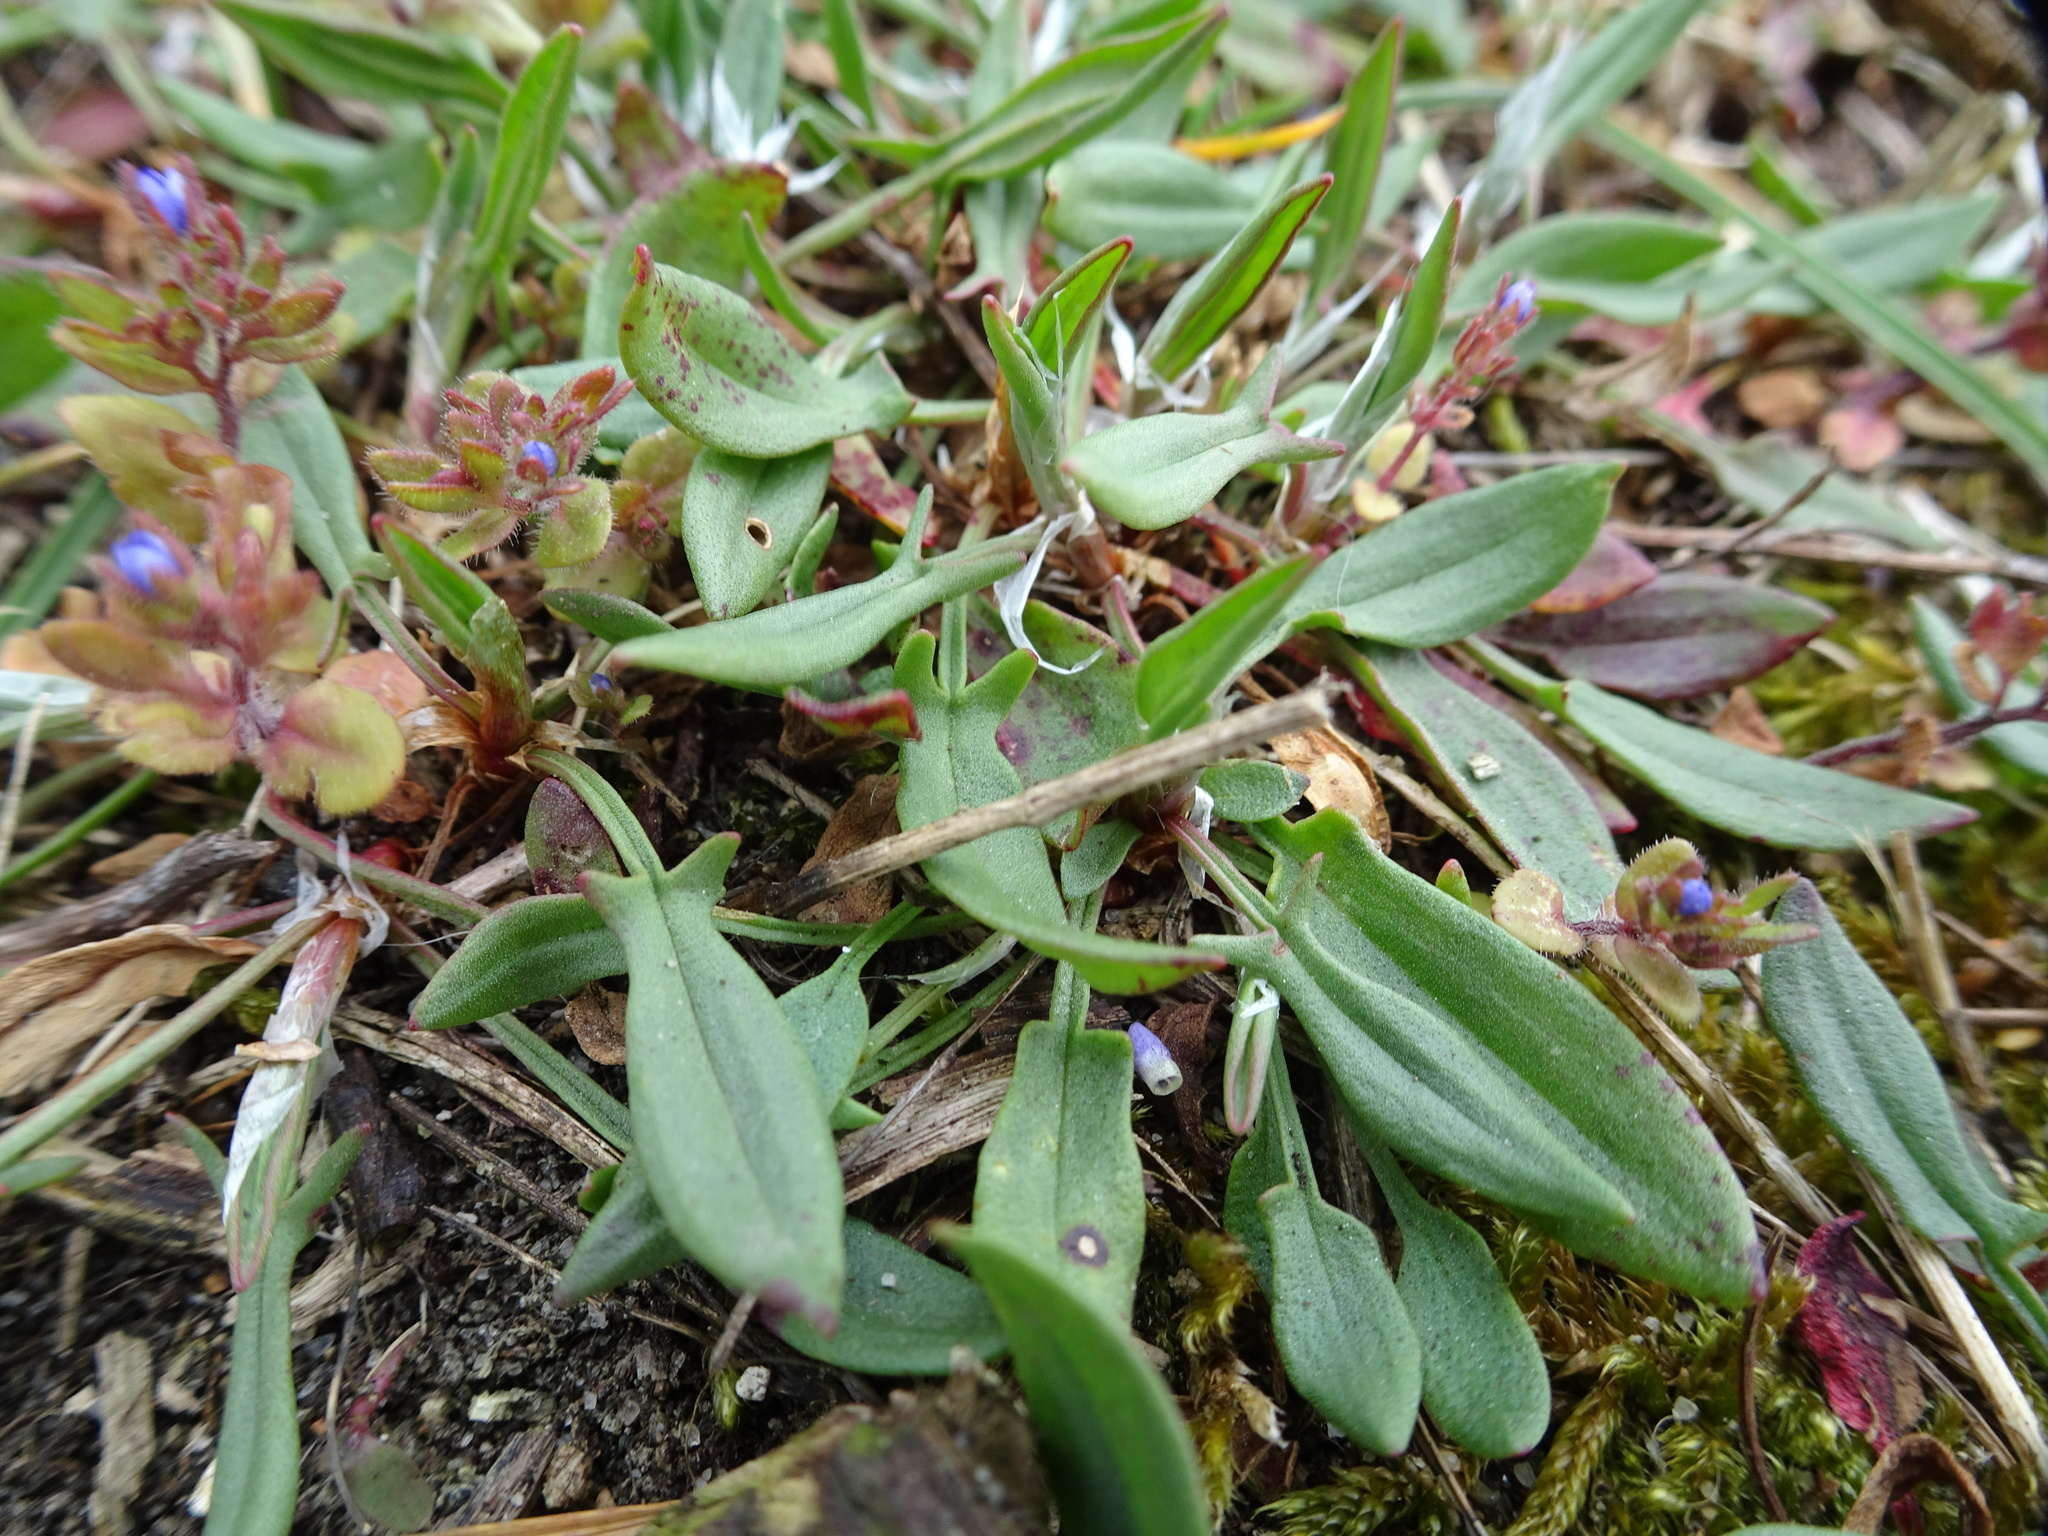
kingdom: Plantae
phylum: Tracheophyta
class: Magnoliopsida
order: Caryophyllales
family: Polygonaceae
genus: Rumex
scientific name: Rumex acetosella
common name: Common sheep sorrel
